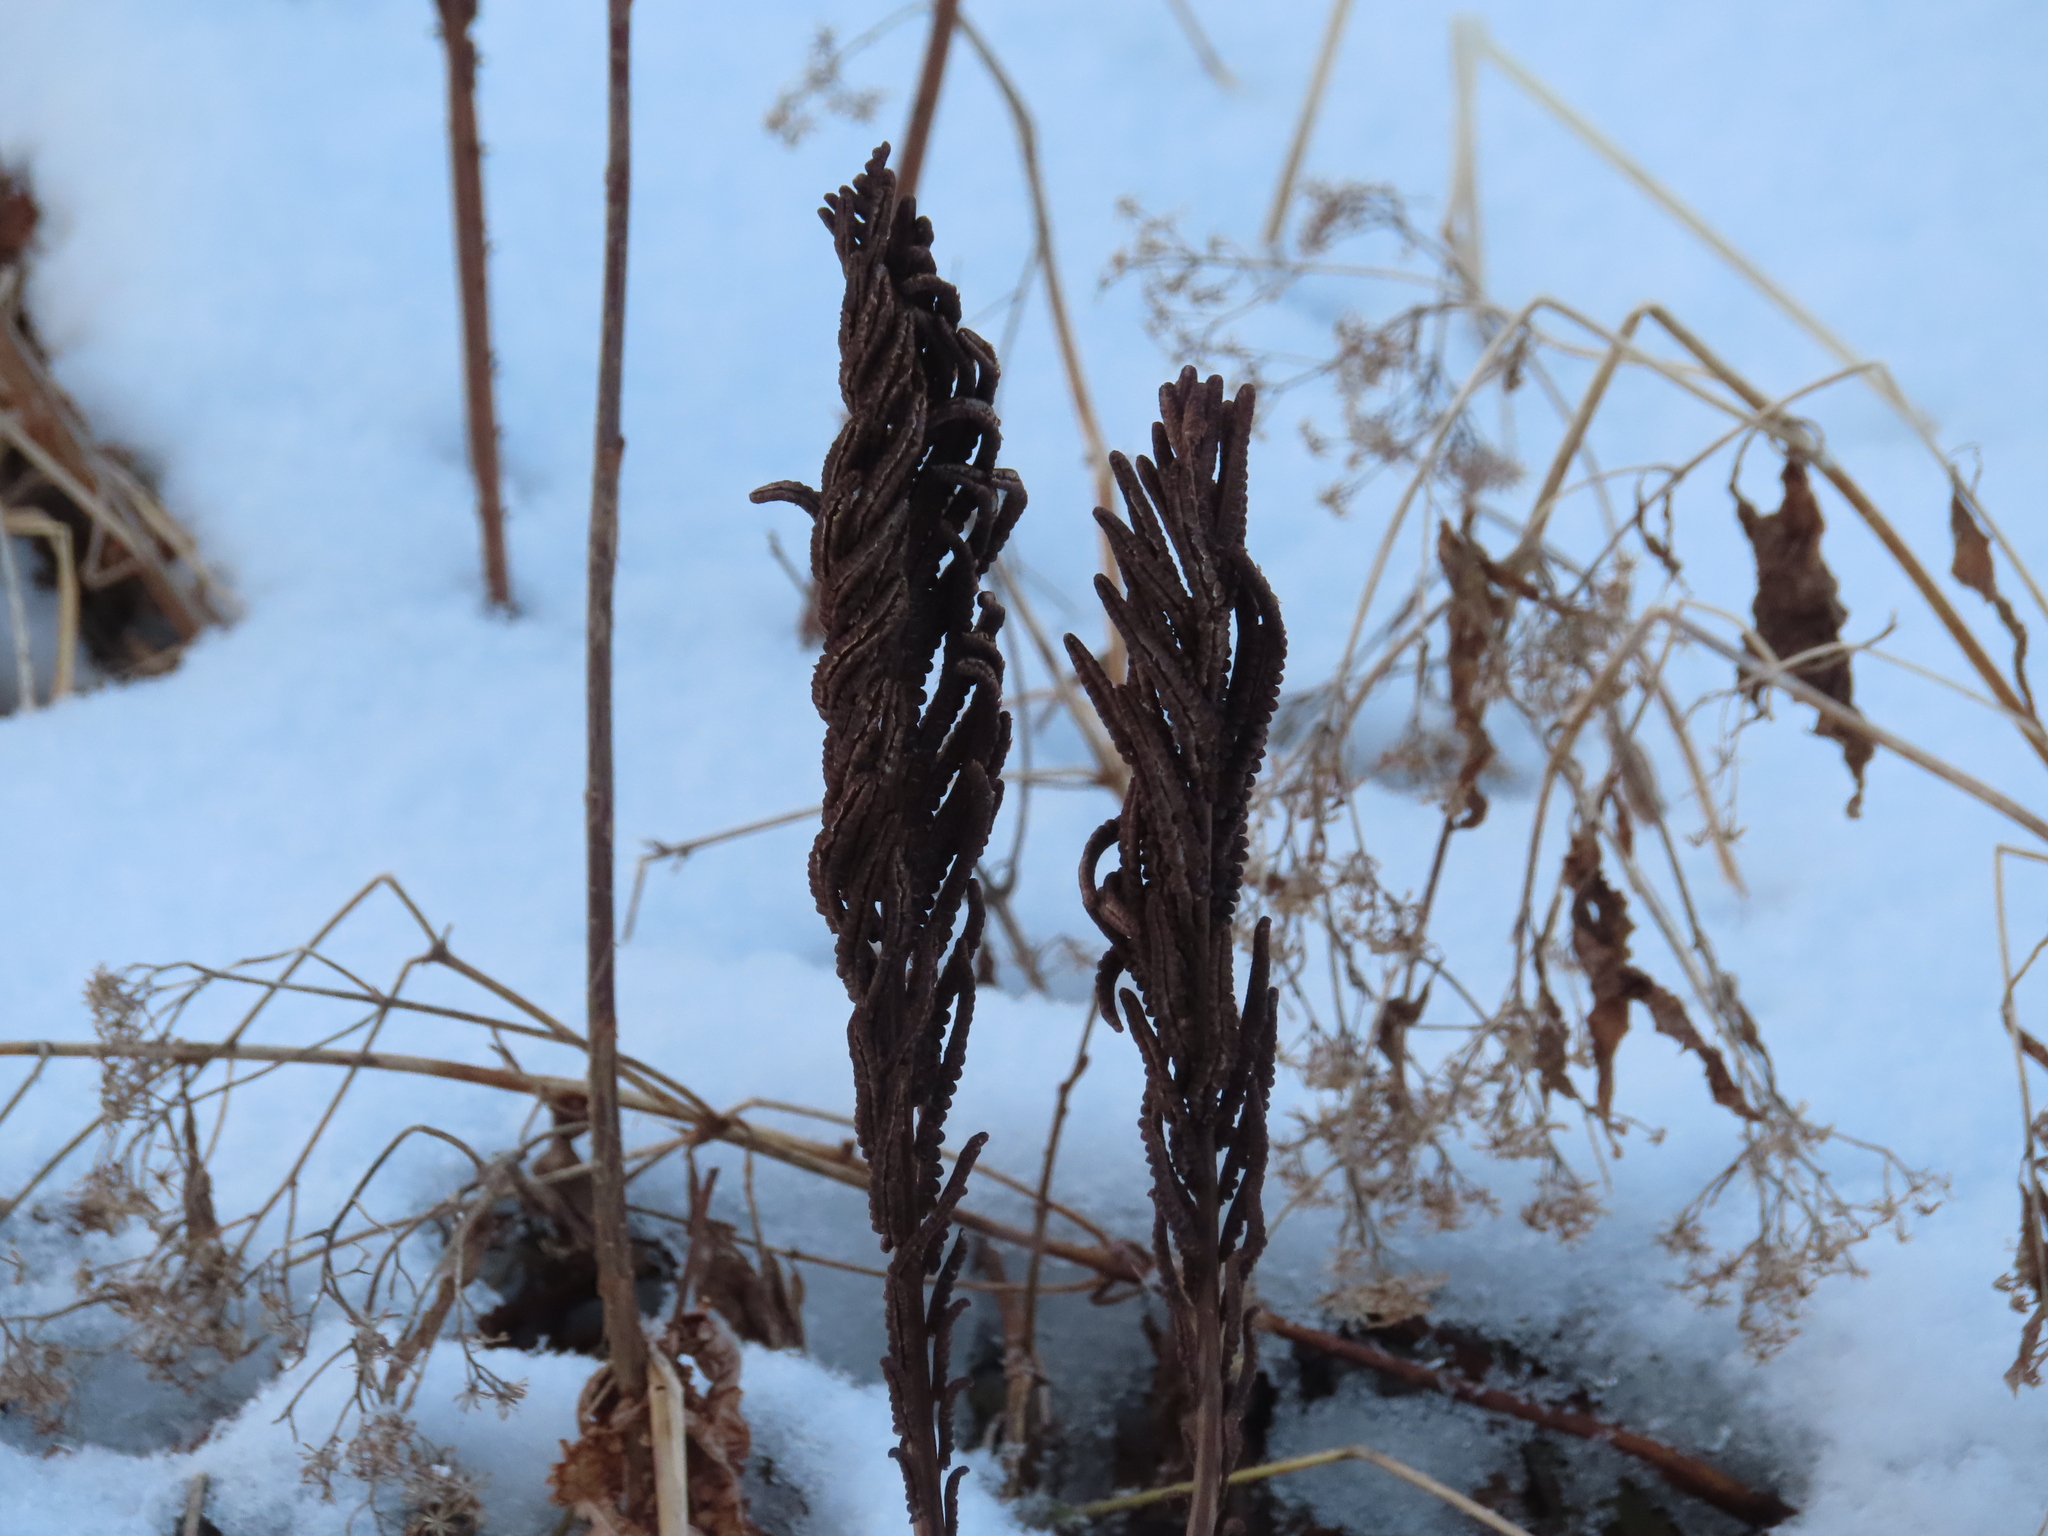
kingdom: Plantae
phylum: Tracheophyta
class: Polypodiopsida
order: Polypodiales
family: Onocleaceae
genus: Matteuccia
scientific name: Matteuccia struthiopteris
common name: Ostrich fern
